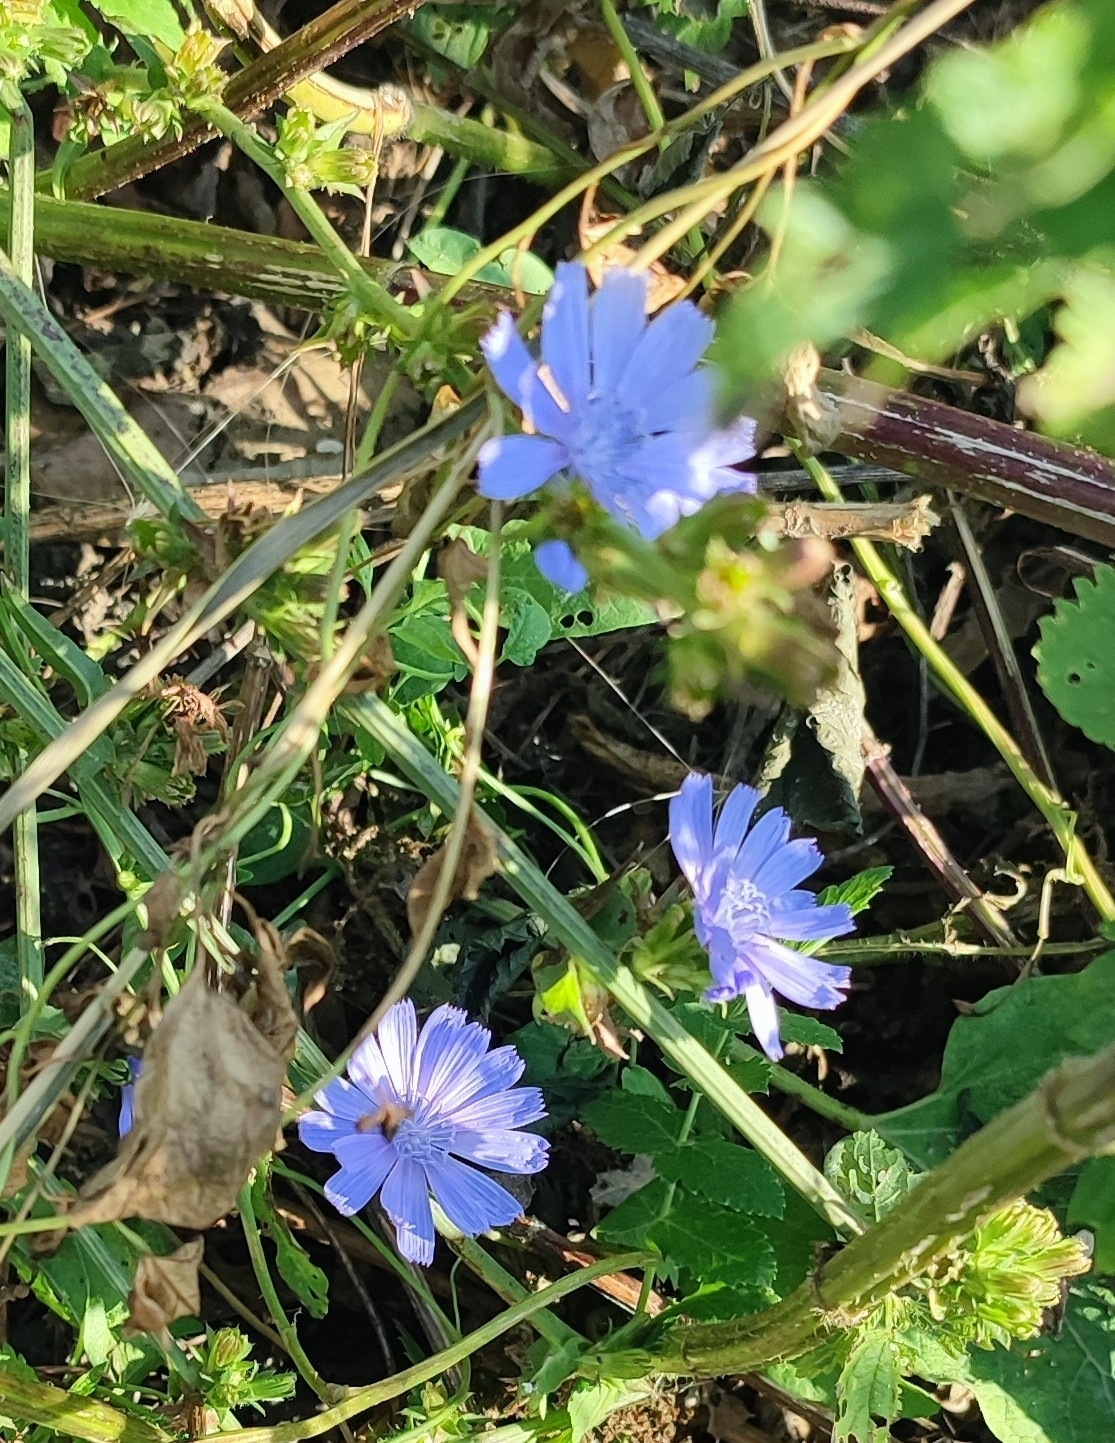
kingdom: Plantae
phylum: Tracheophyta
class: Magnoliopsida
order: Asterales
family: Asteraceae
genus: Cichorium
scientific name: Cichorium intybus
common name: Chicory
